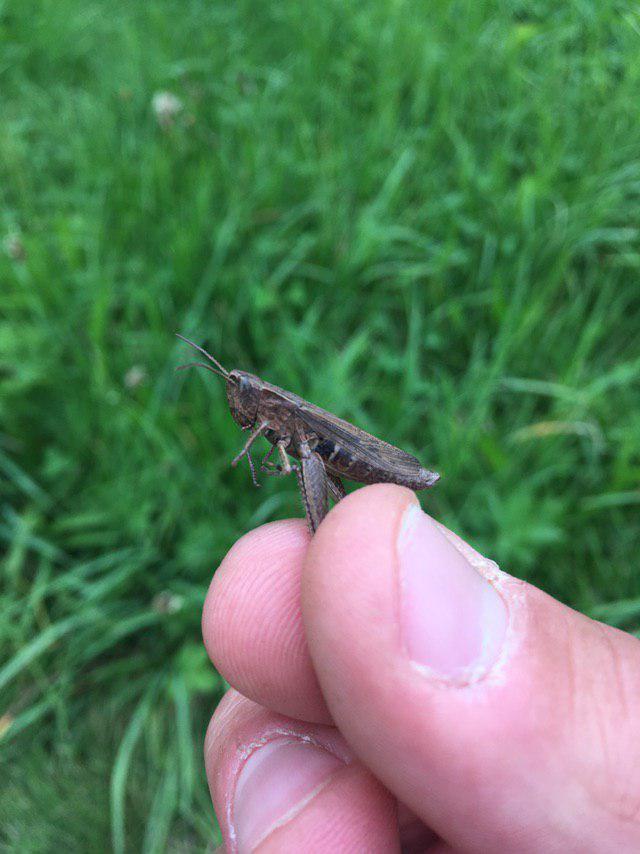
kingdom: Animalia
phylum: Arthropoda
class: Insecta
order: Orthoptera
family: Acrididae
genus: Chorthippus
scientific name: Chorthippus dorsatus
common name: Steppe grasshopper
